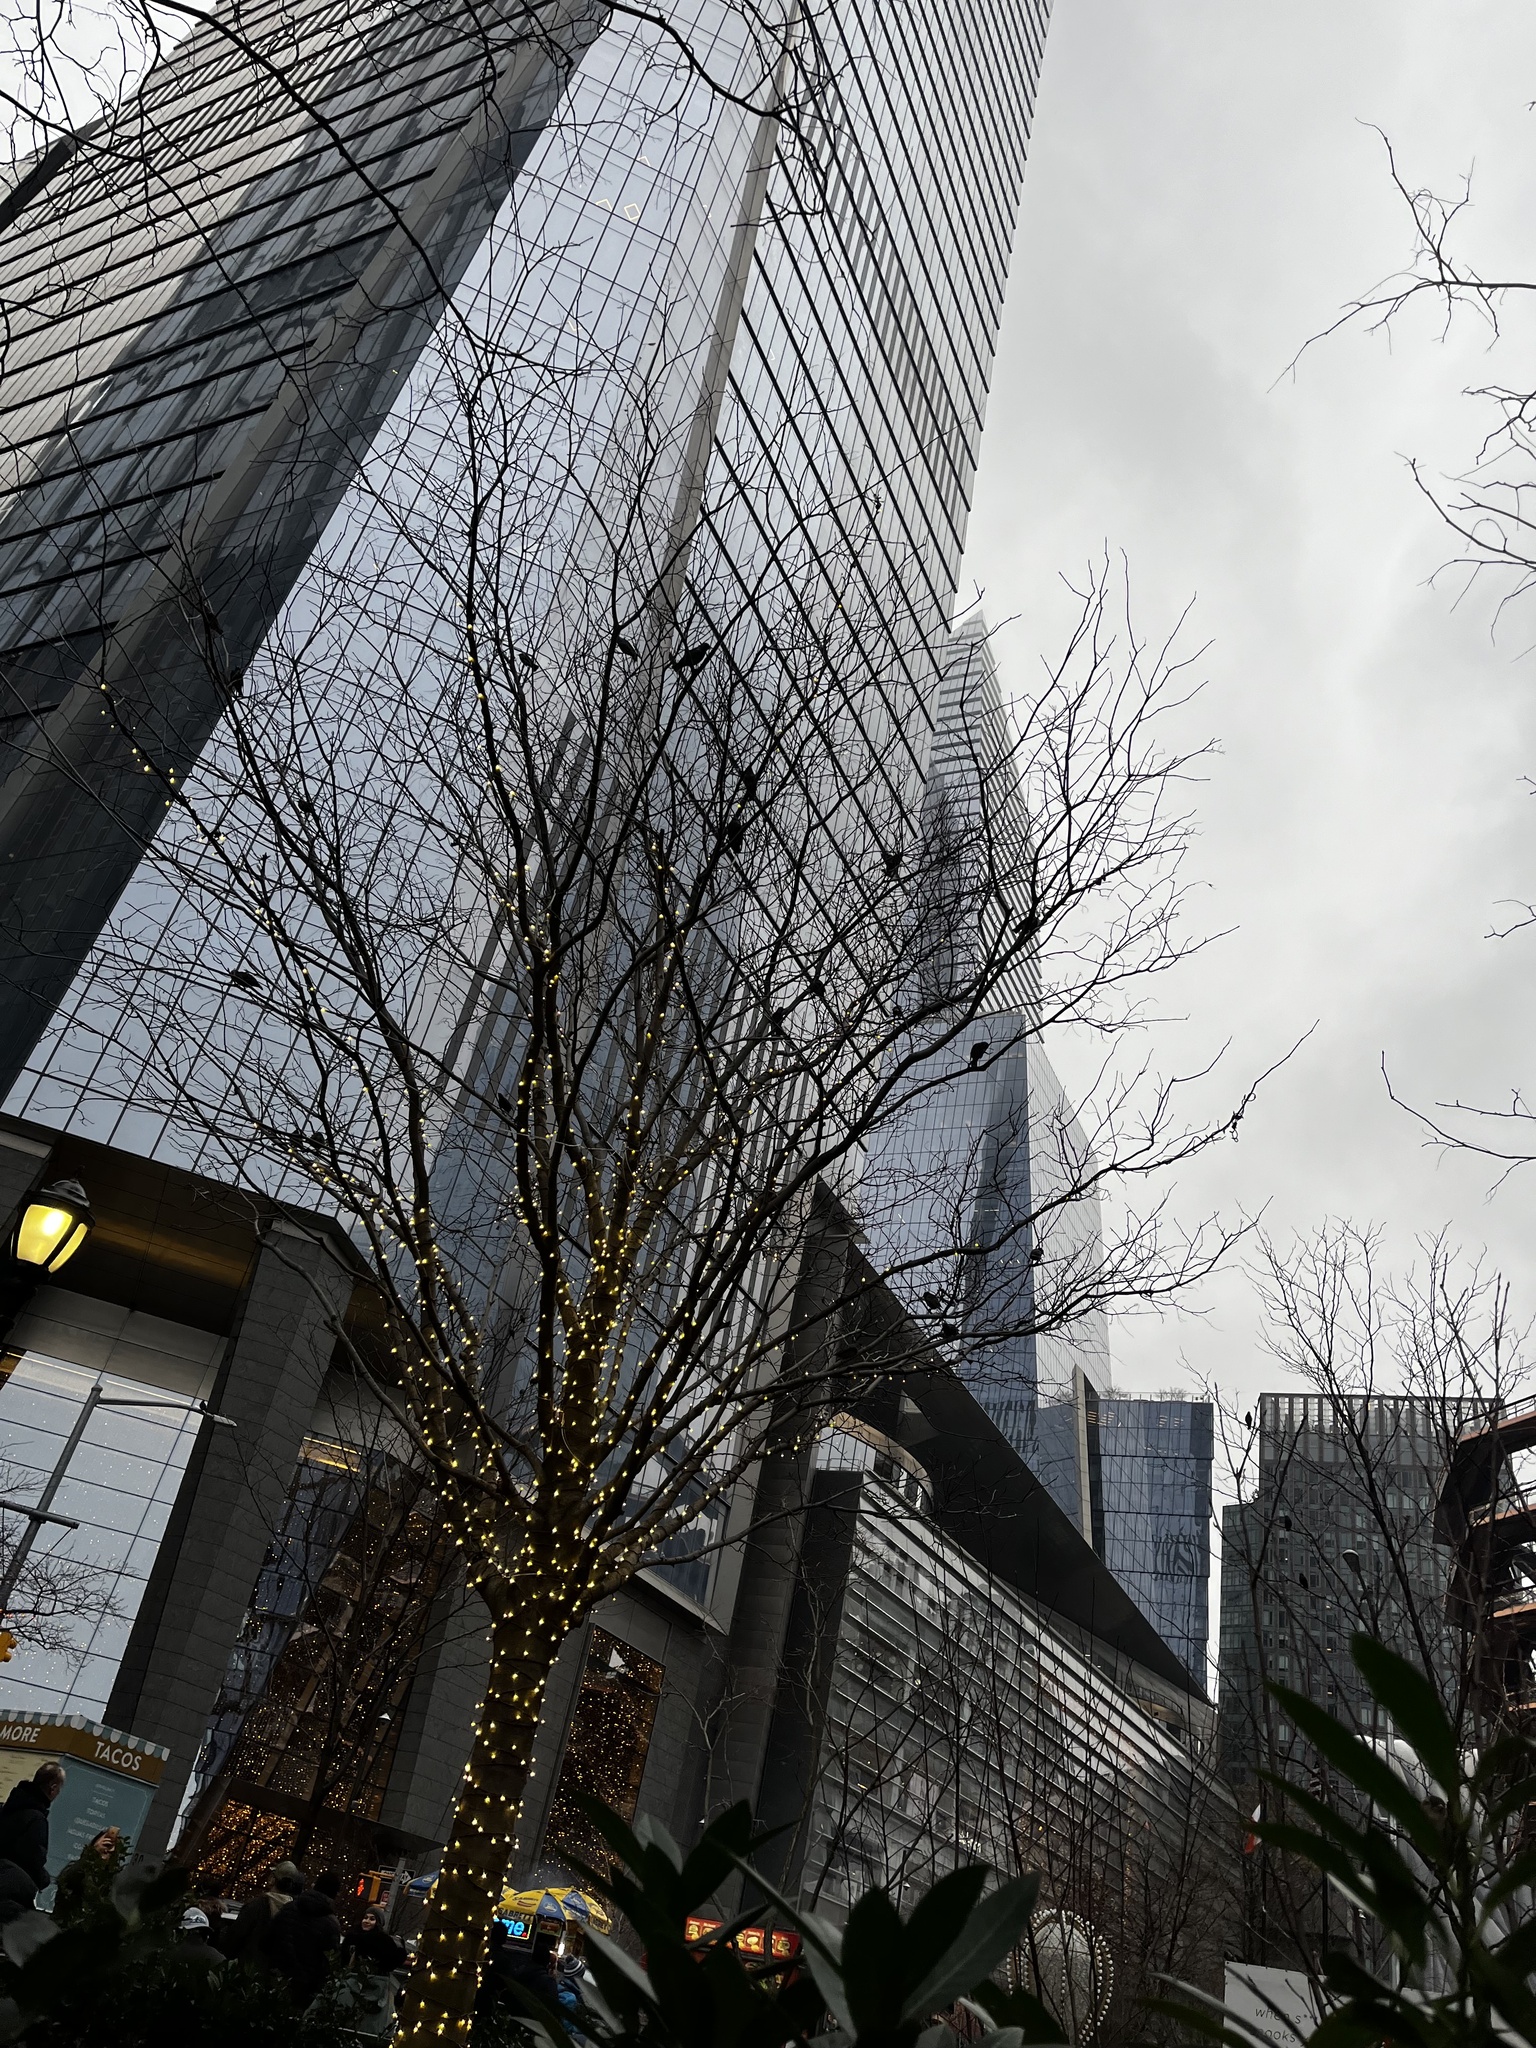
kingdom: Animalia
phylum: Chordata
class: Aves
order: Passeriformes
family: Sturnidae
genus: Sturnus
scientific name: Sturnus vulgaris
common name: Common starling
